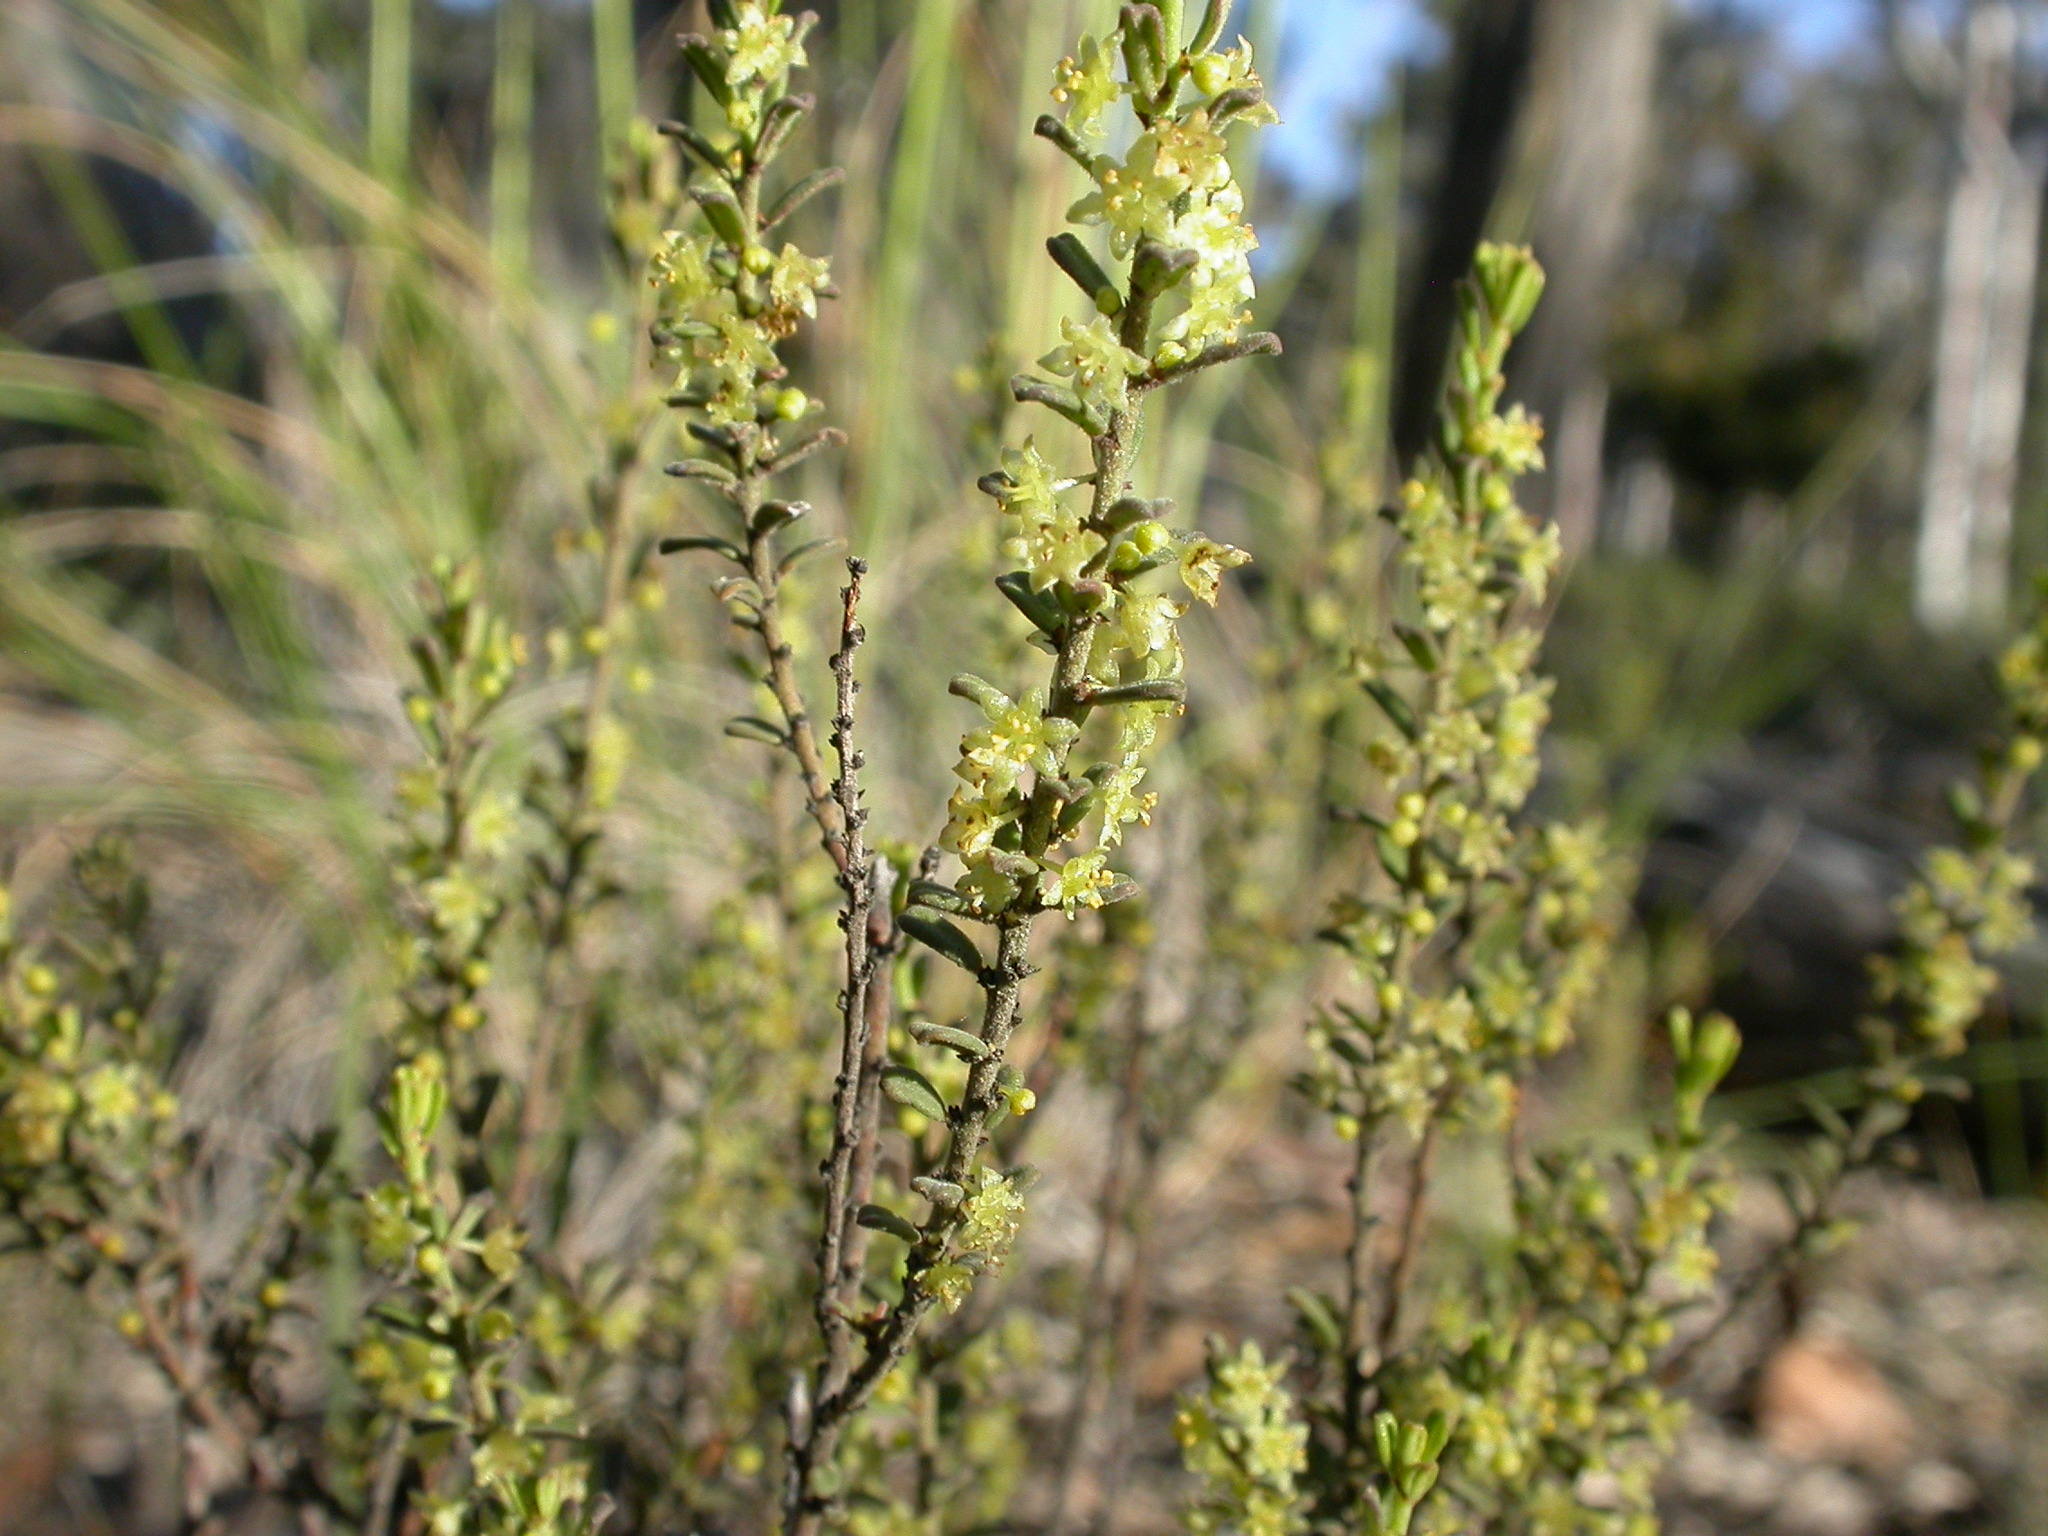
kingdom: Plantae
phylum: Tracheophyta
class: Magnoliopsida
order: Malpighiales
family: Phyllanthaceae
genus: Phyllanthus
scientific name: Phyllanthus occidentalis
